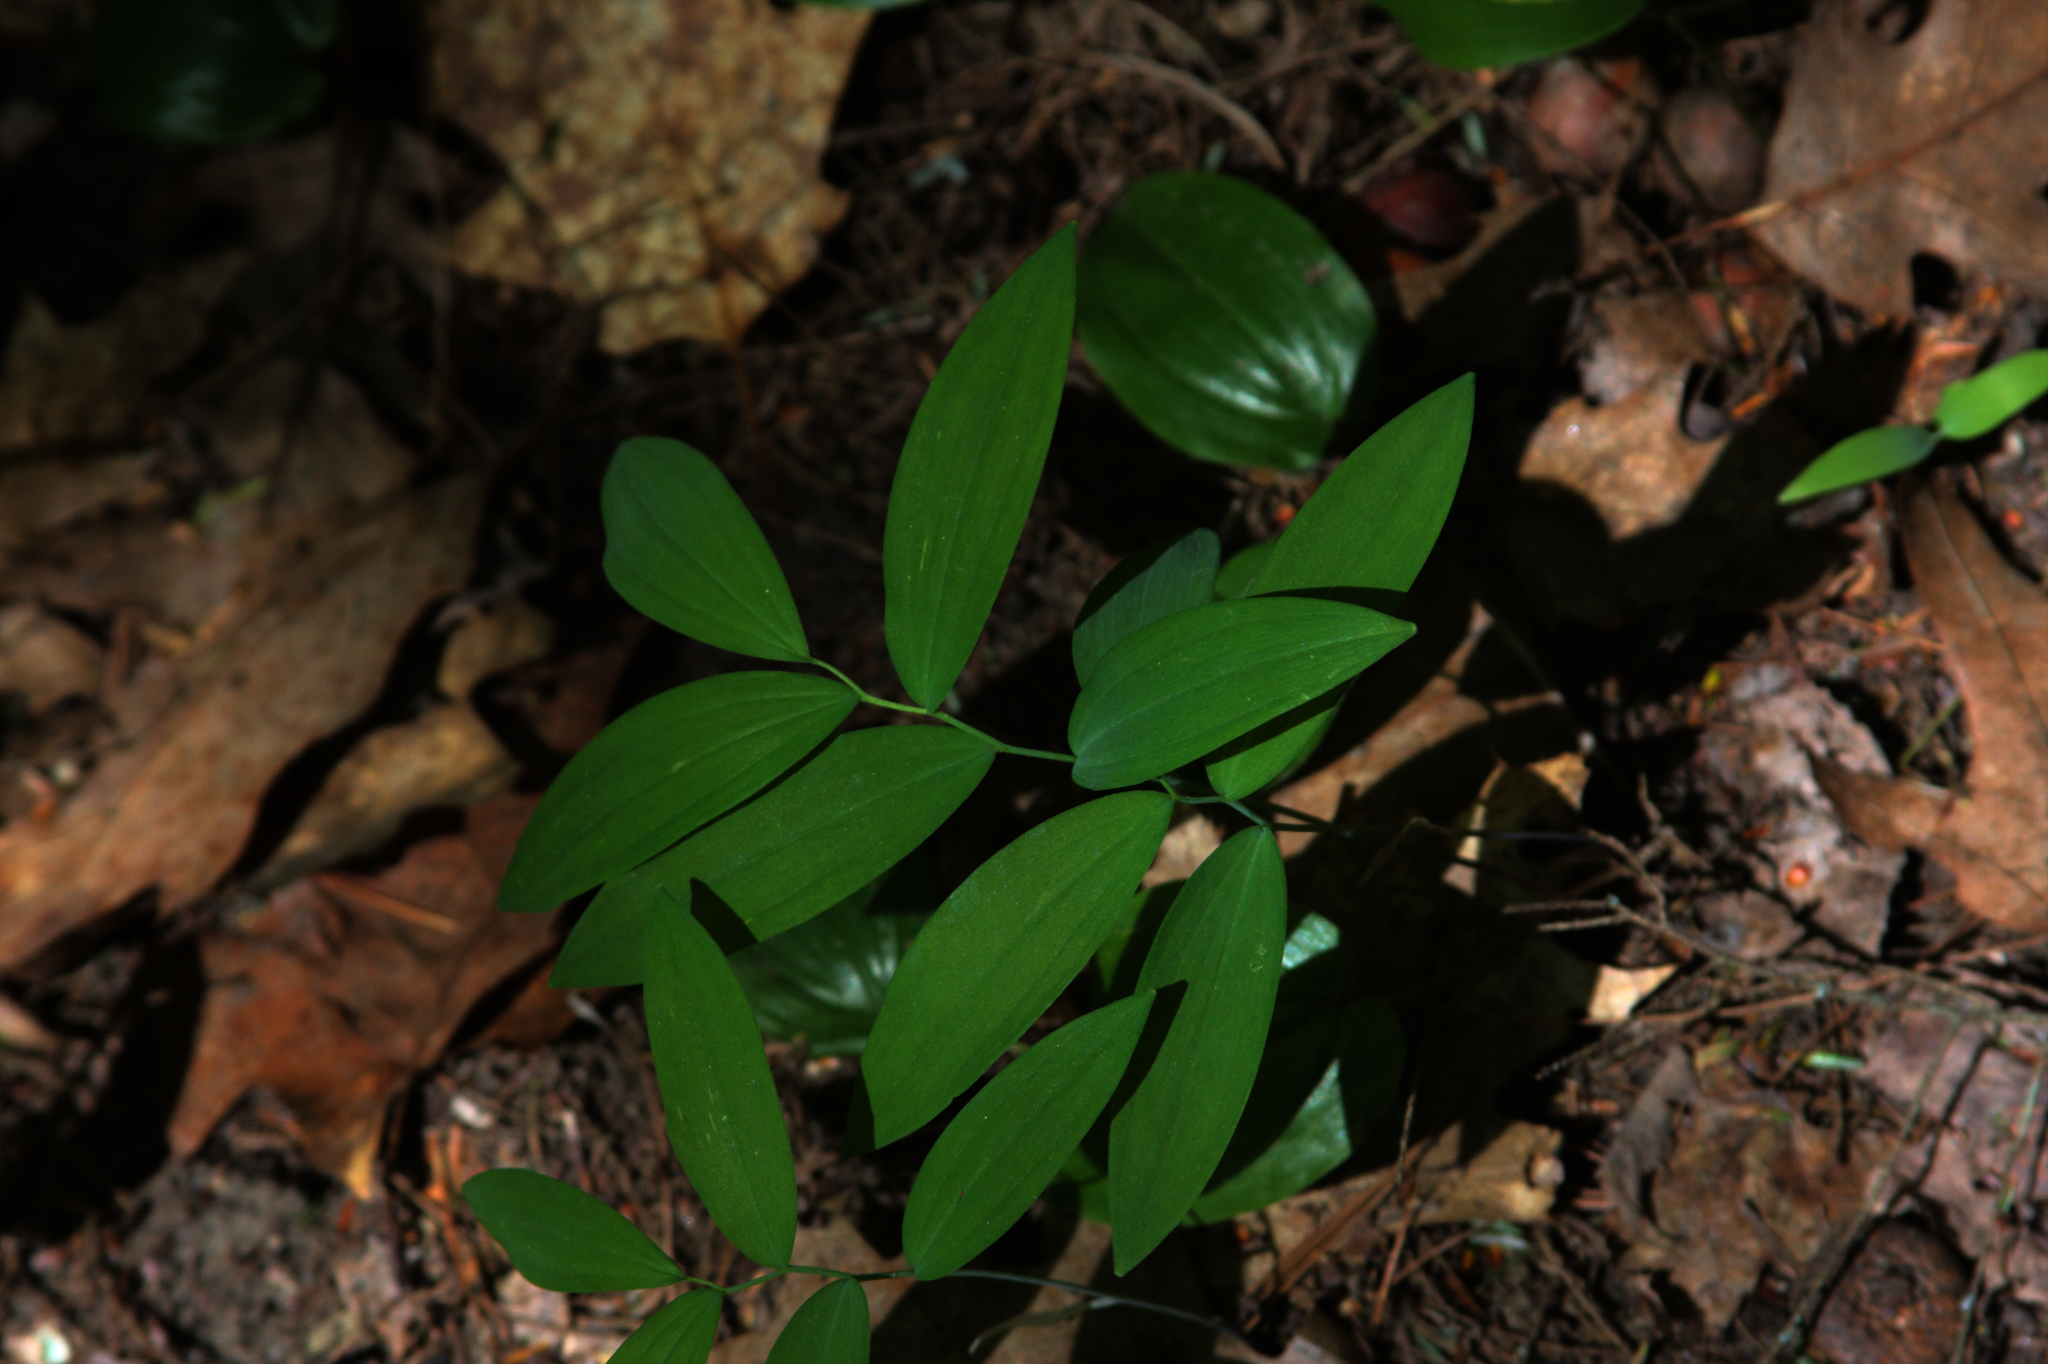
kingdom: Plantae
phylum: Tracheophyta
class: Liliopsida
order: Asparagales
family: Asparagaceae
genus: Maianthemum
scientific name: Maianthemum canadense
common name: False lily-of-the-valley
